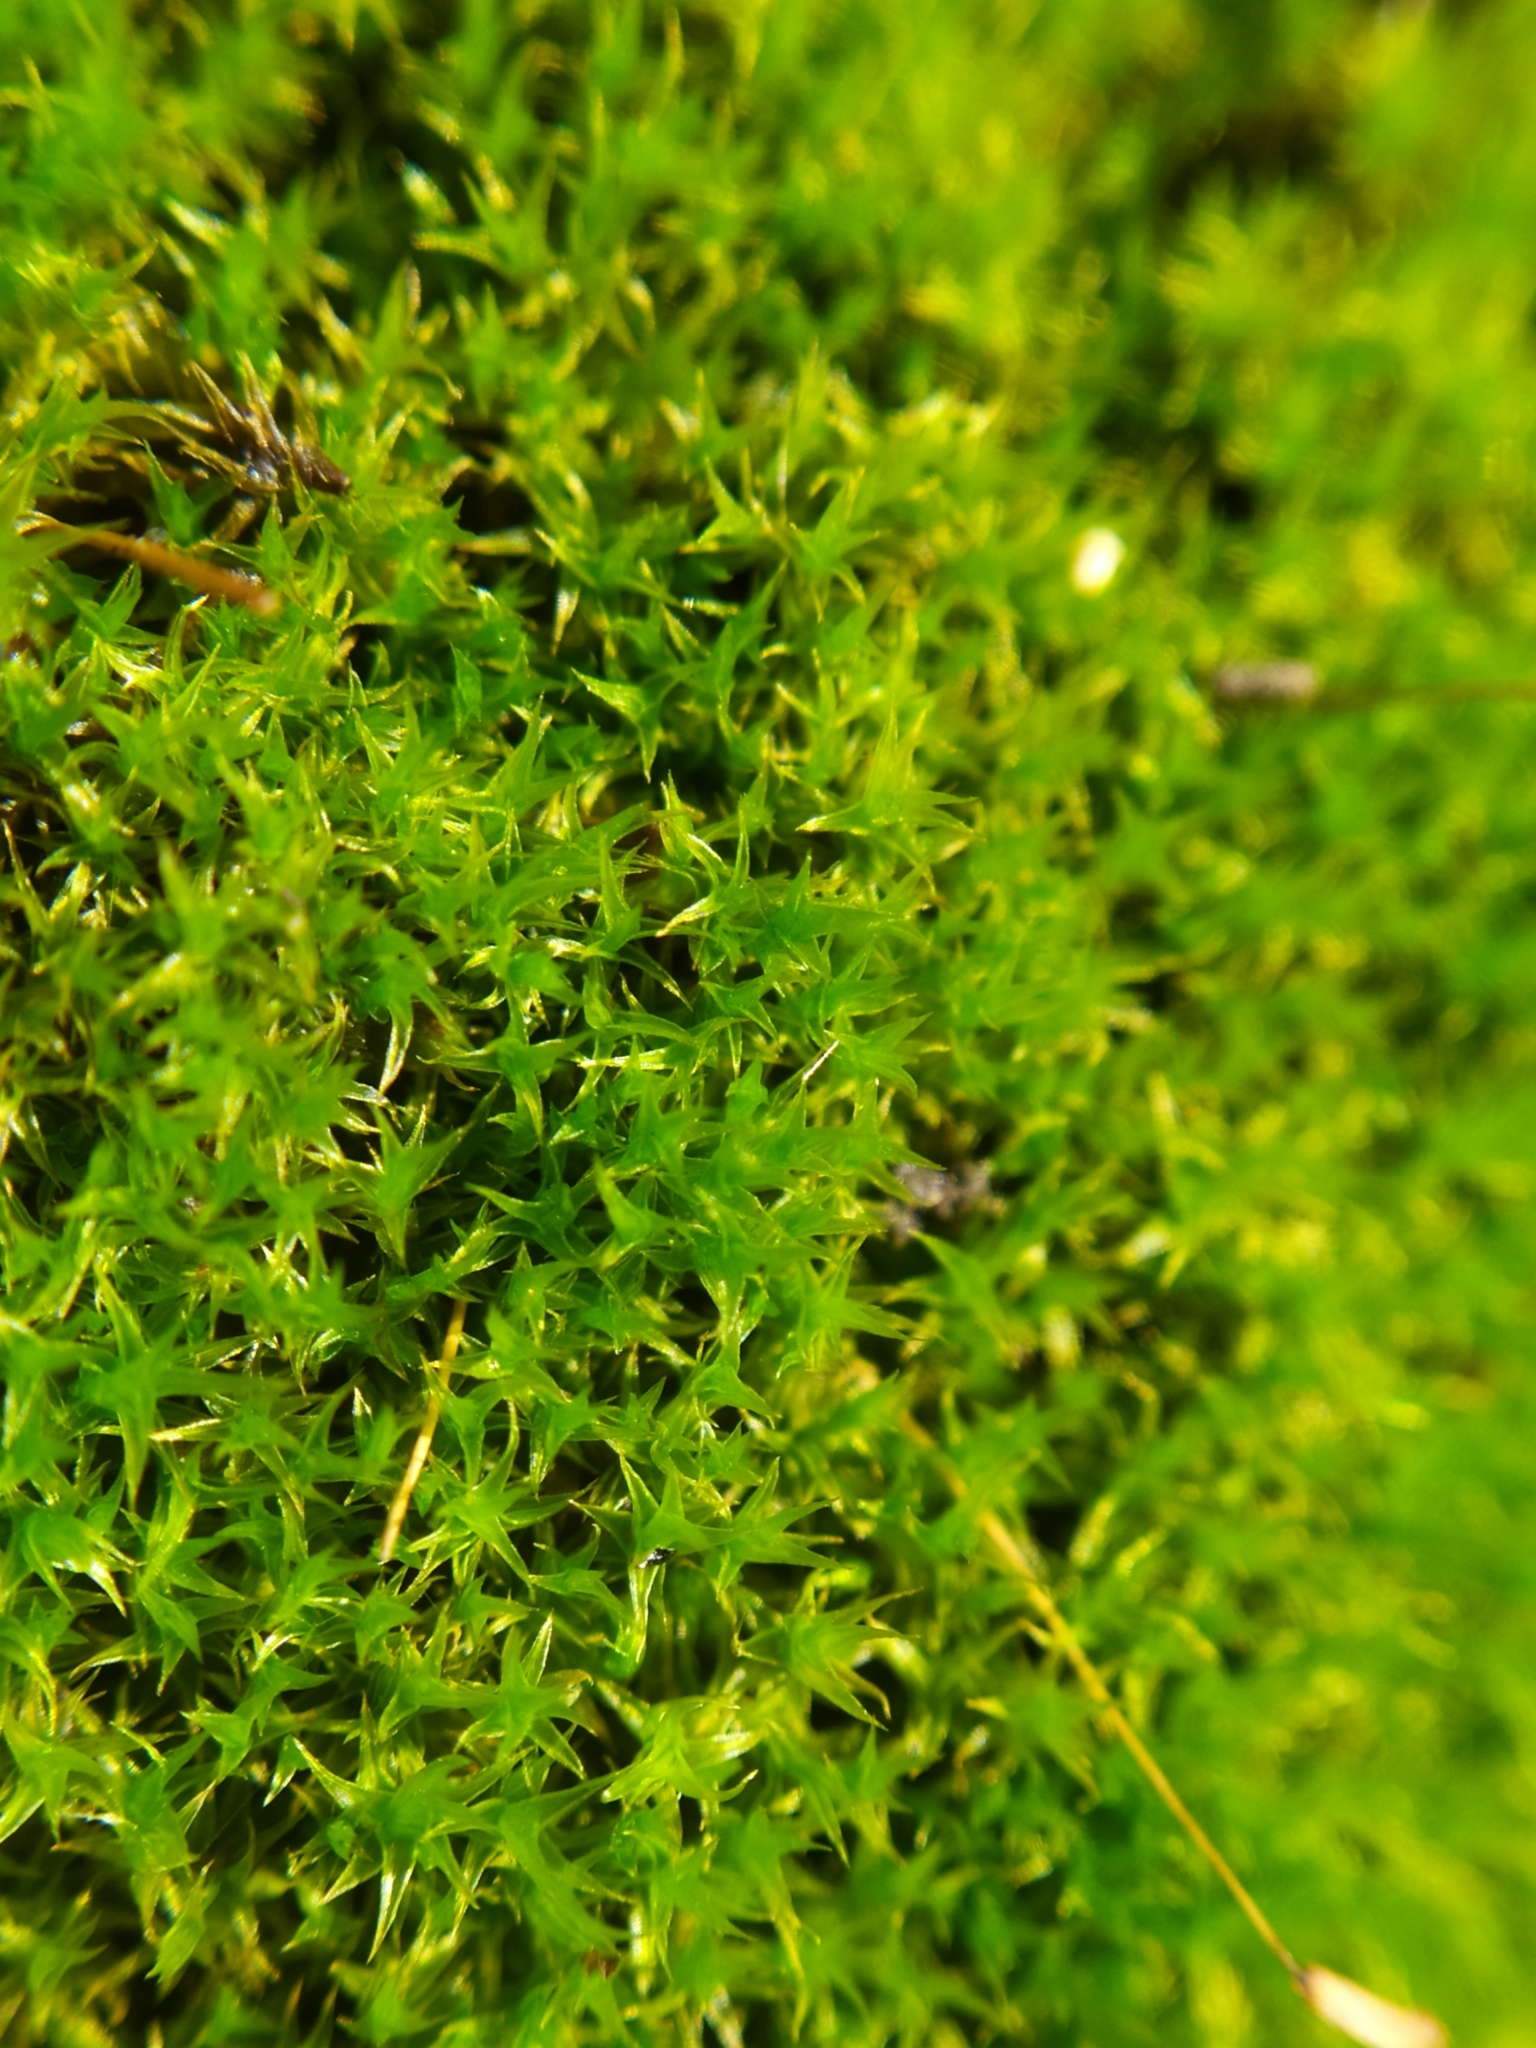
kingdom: Plantae
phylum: Bryophyta
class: Bryopsida
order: Dicranales
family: Ditrichaceae
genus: Ceratodon
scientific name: Ceratodon purpureus
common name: Redshank
